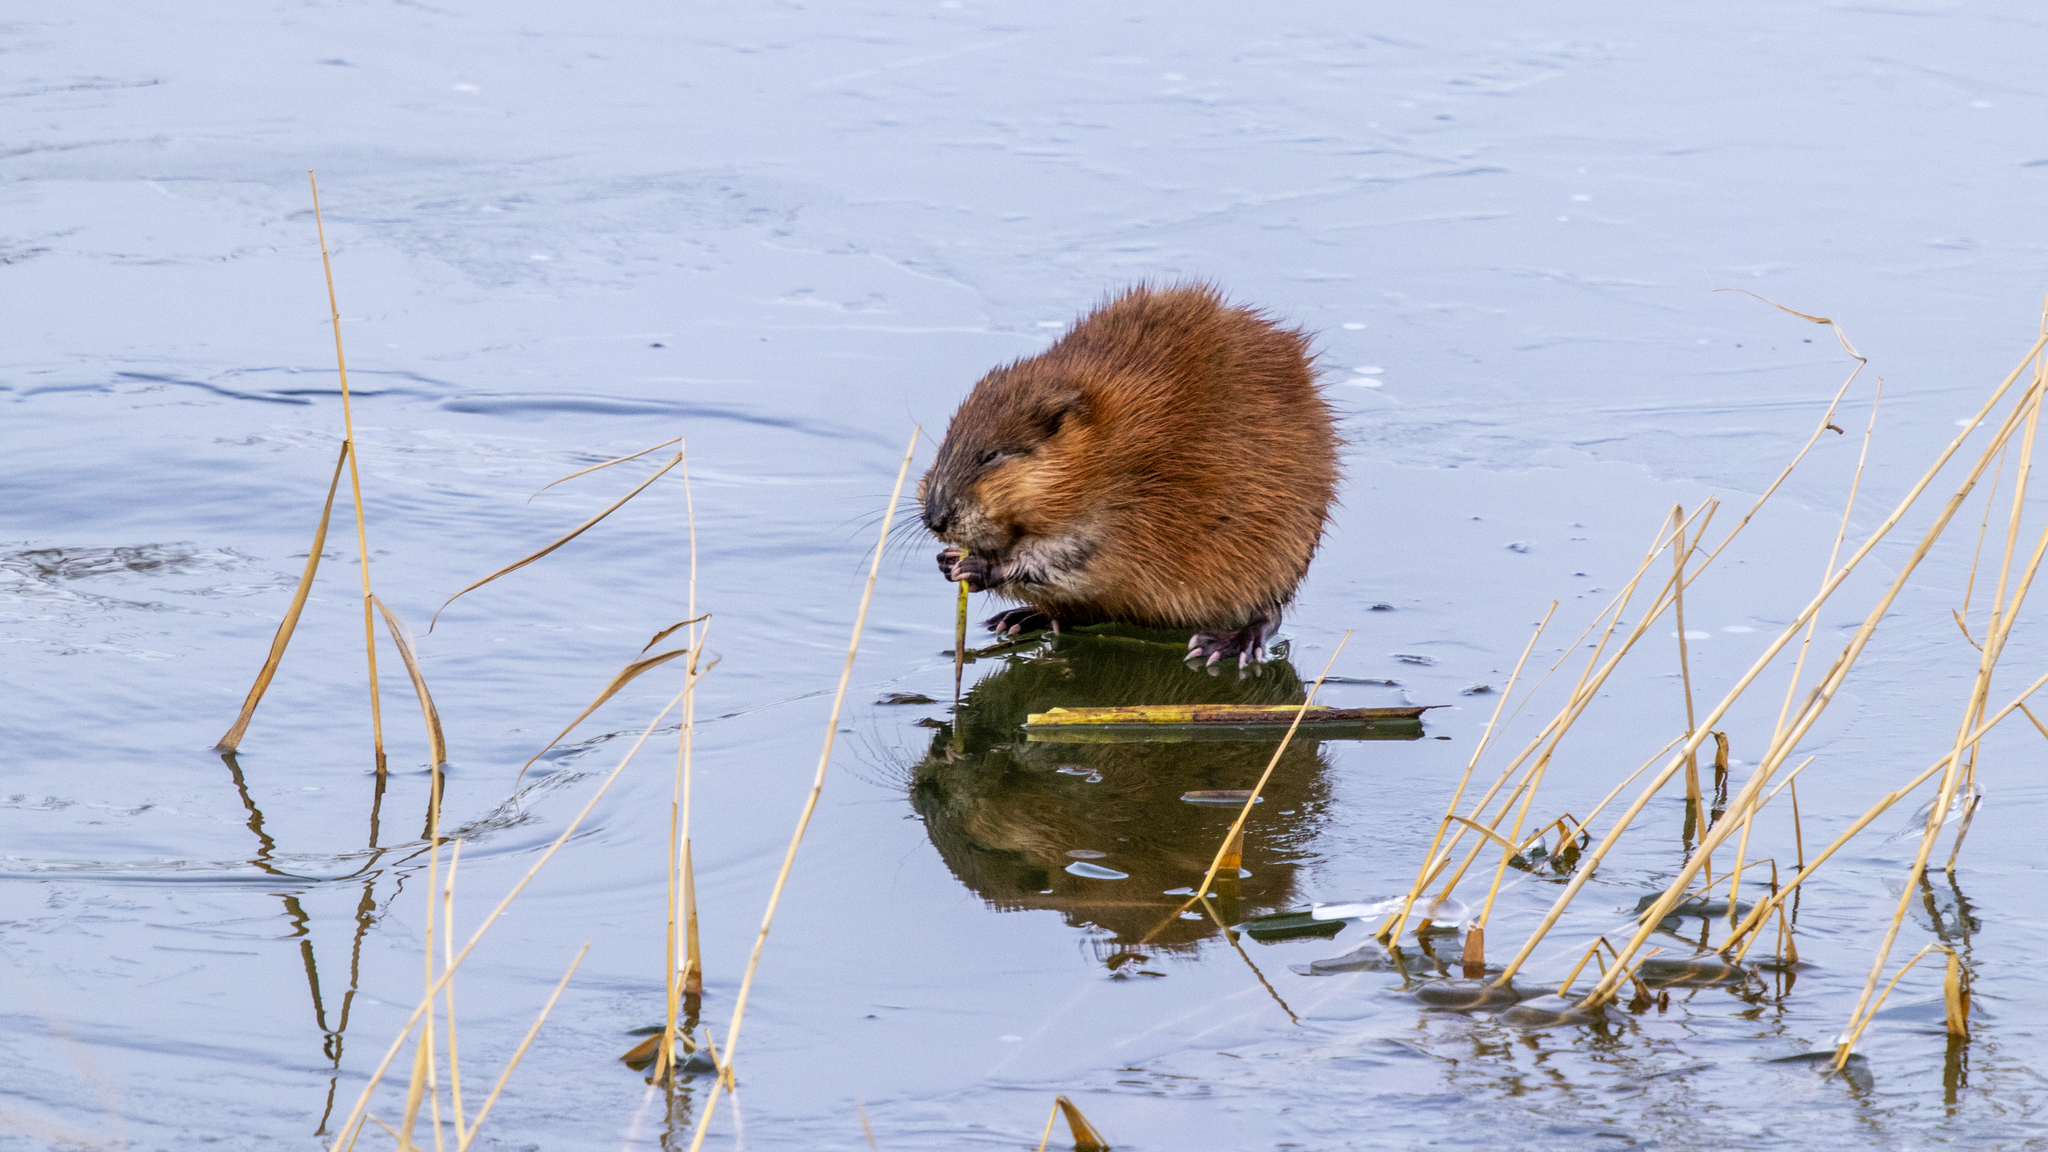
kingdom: Animalia
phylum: Chordata
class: Mammalia
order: Rodentia
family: Cricetidae
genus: Ondatra
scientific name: Ondatra zibethicus
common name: Muskrat
